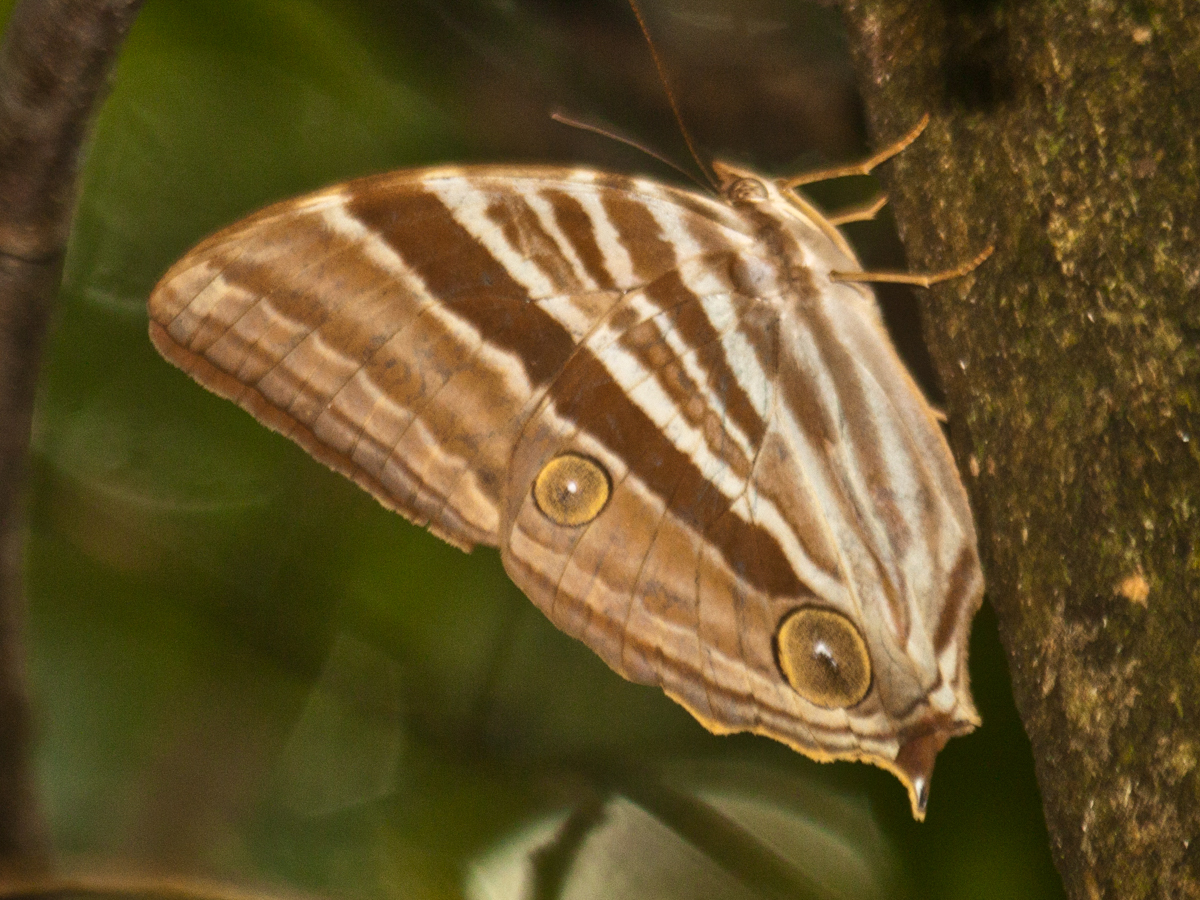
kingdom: Animalia
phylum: Arthropoda
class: Insecta
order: Lepidoptera
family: Nymphalidae
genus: Amathusia
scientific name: Amathusia phidippus
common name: Palm king
